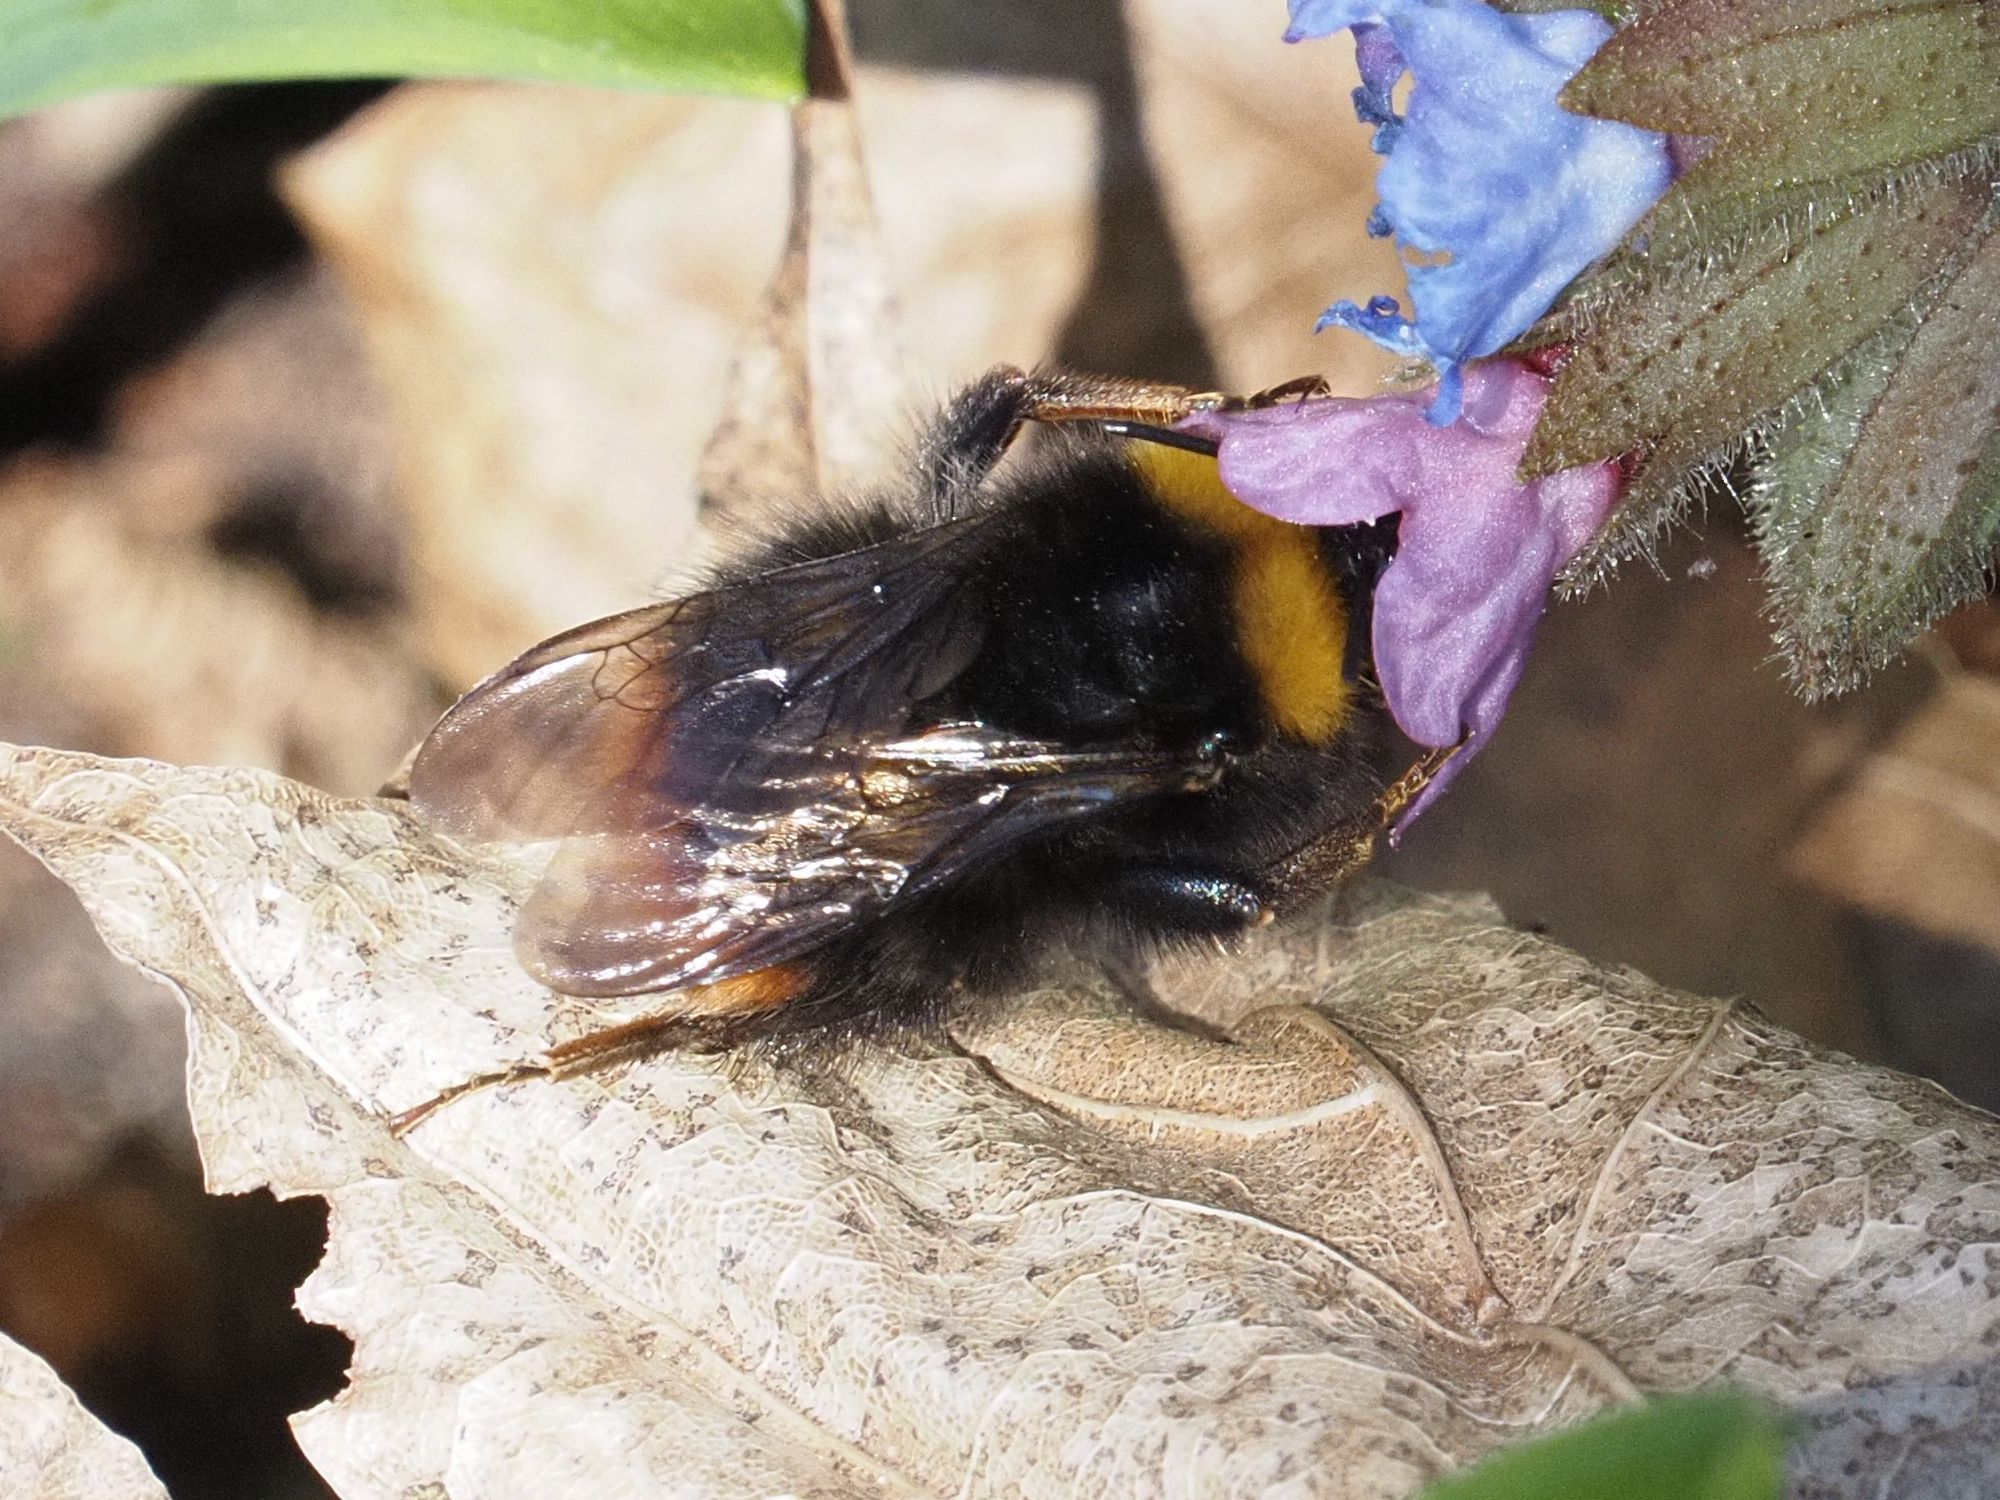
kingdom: Animalia
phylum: Arthropoda
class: Insecta
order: Hymenoptera
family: Apidae
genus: Bombus
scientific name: Bombus pratorum
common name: Early humble-bee
